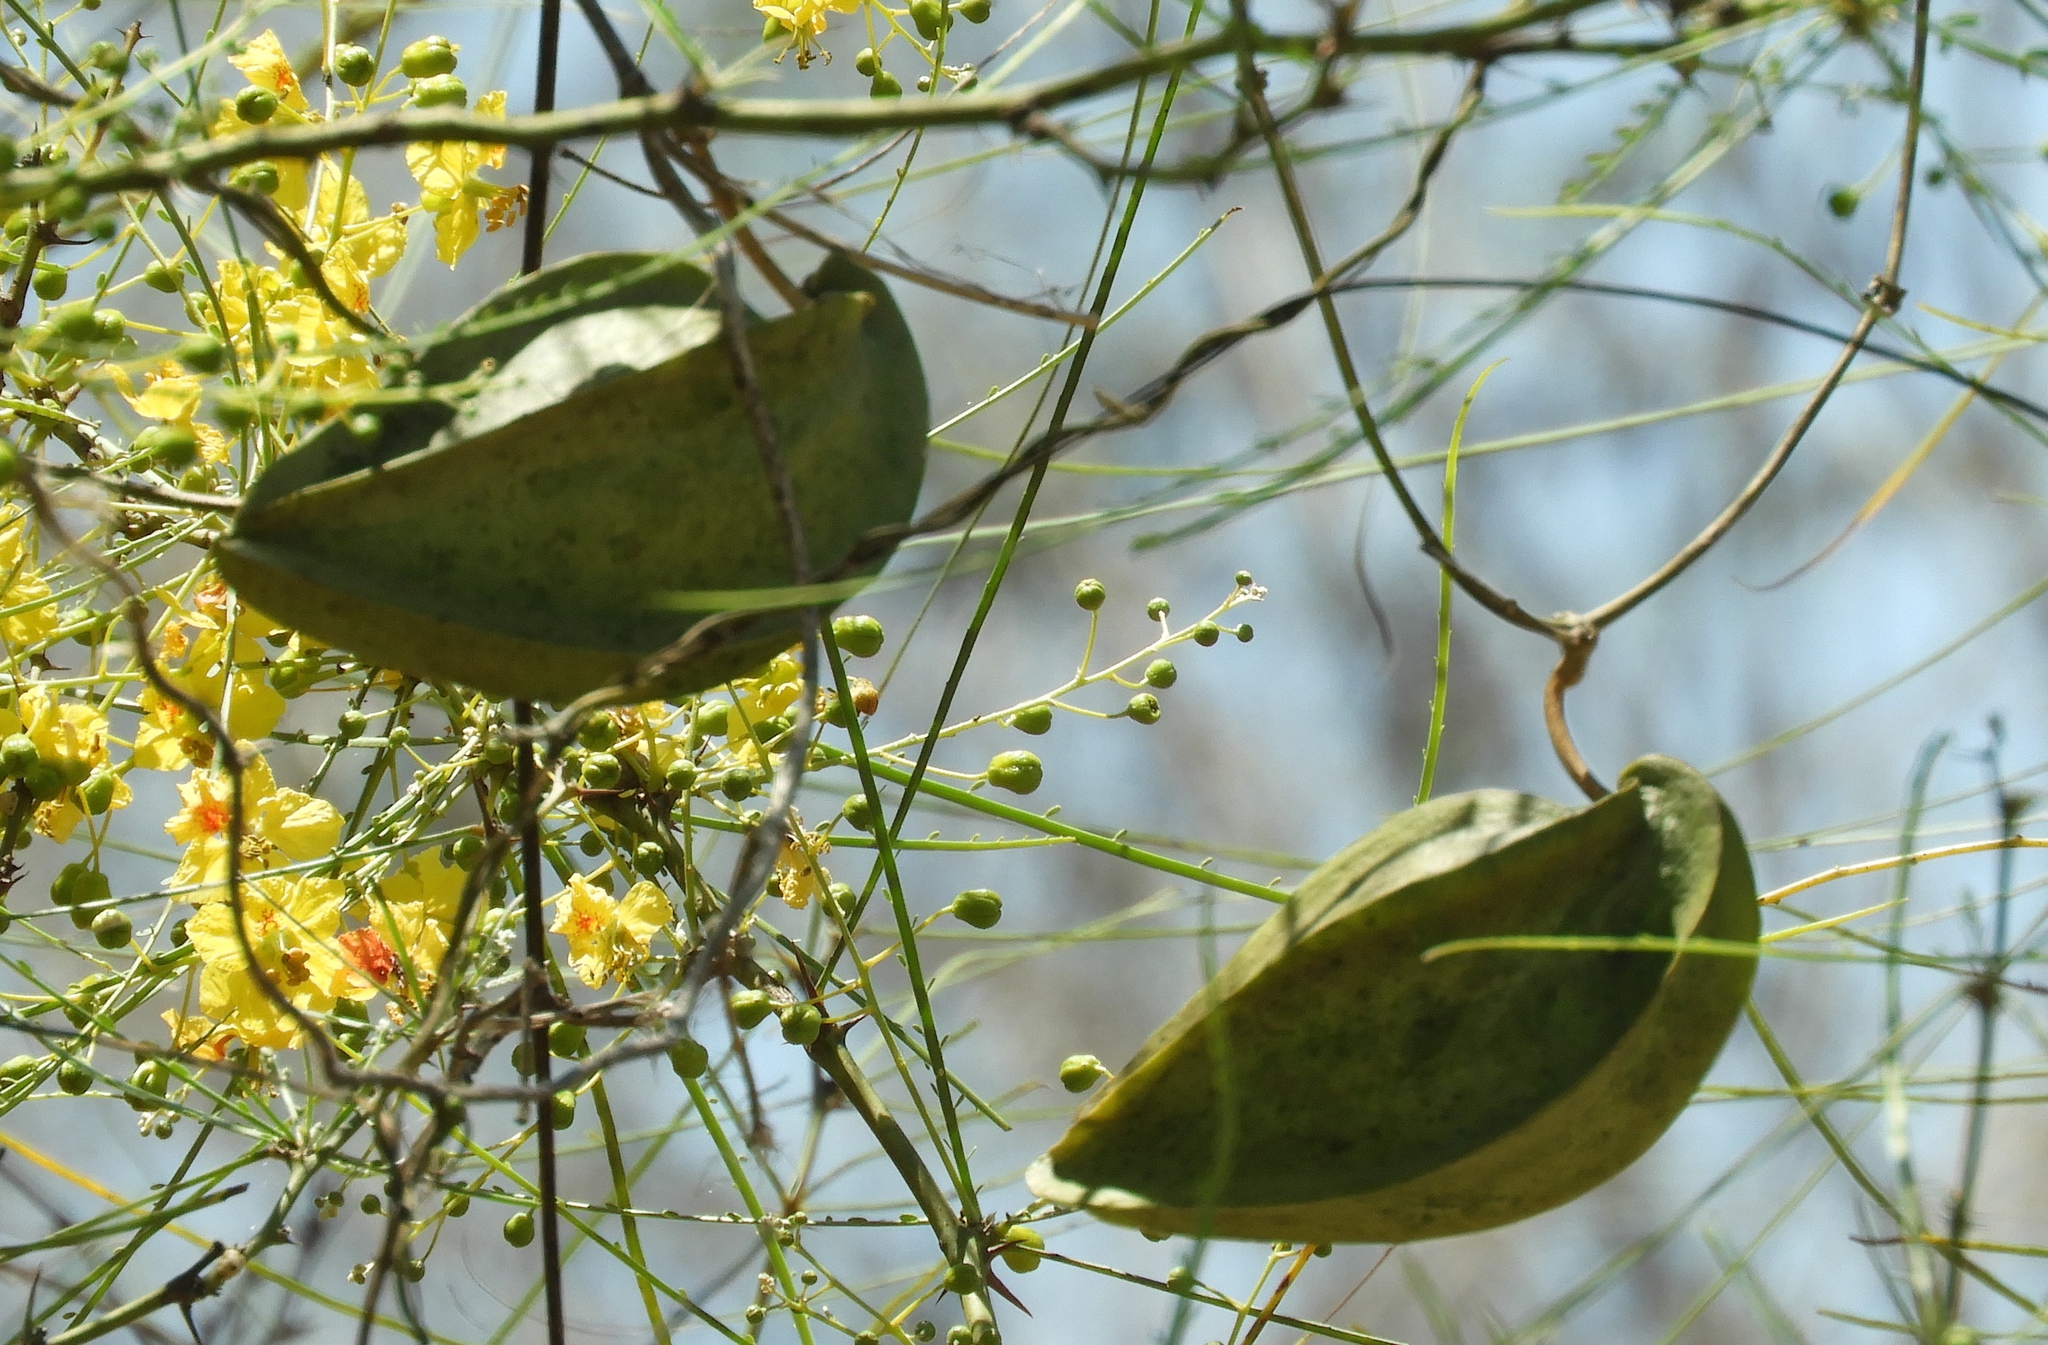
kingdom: Plantae
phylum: Tracheophyta
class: Magnoliopsida
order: Gentianales
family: Apocynaceae
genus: Gonolobus
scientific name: Gonolobus naturalistae
